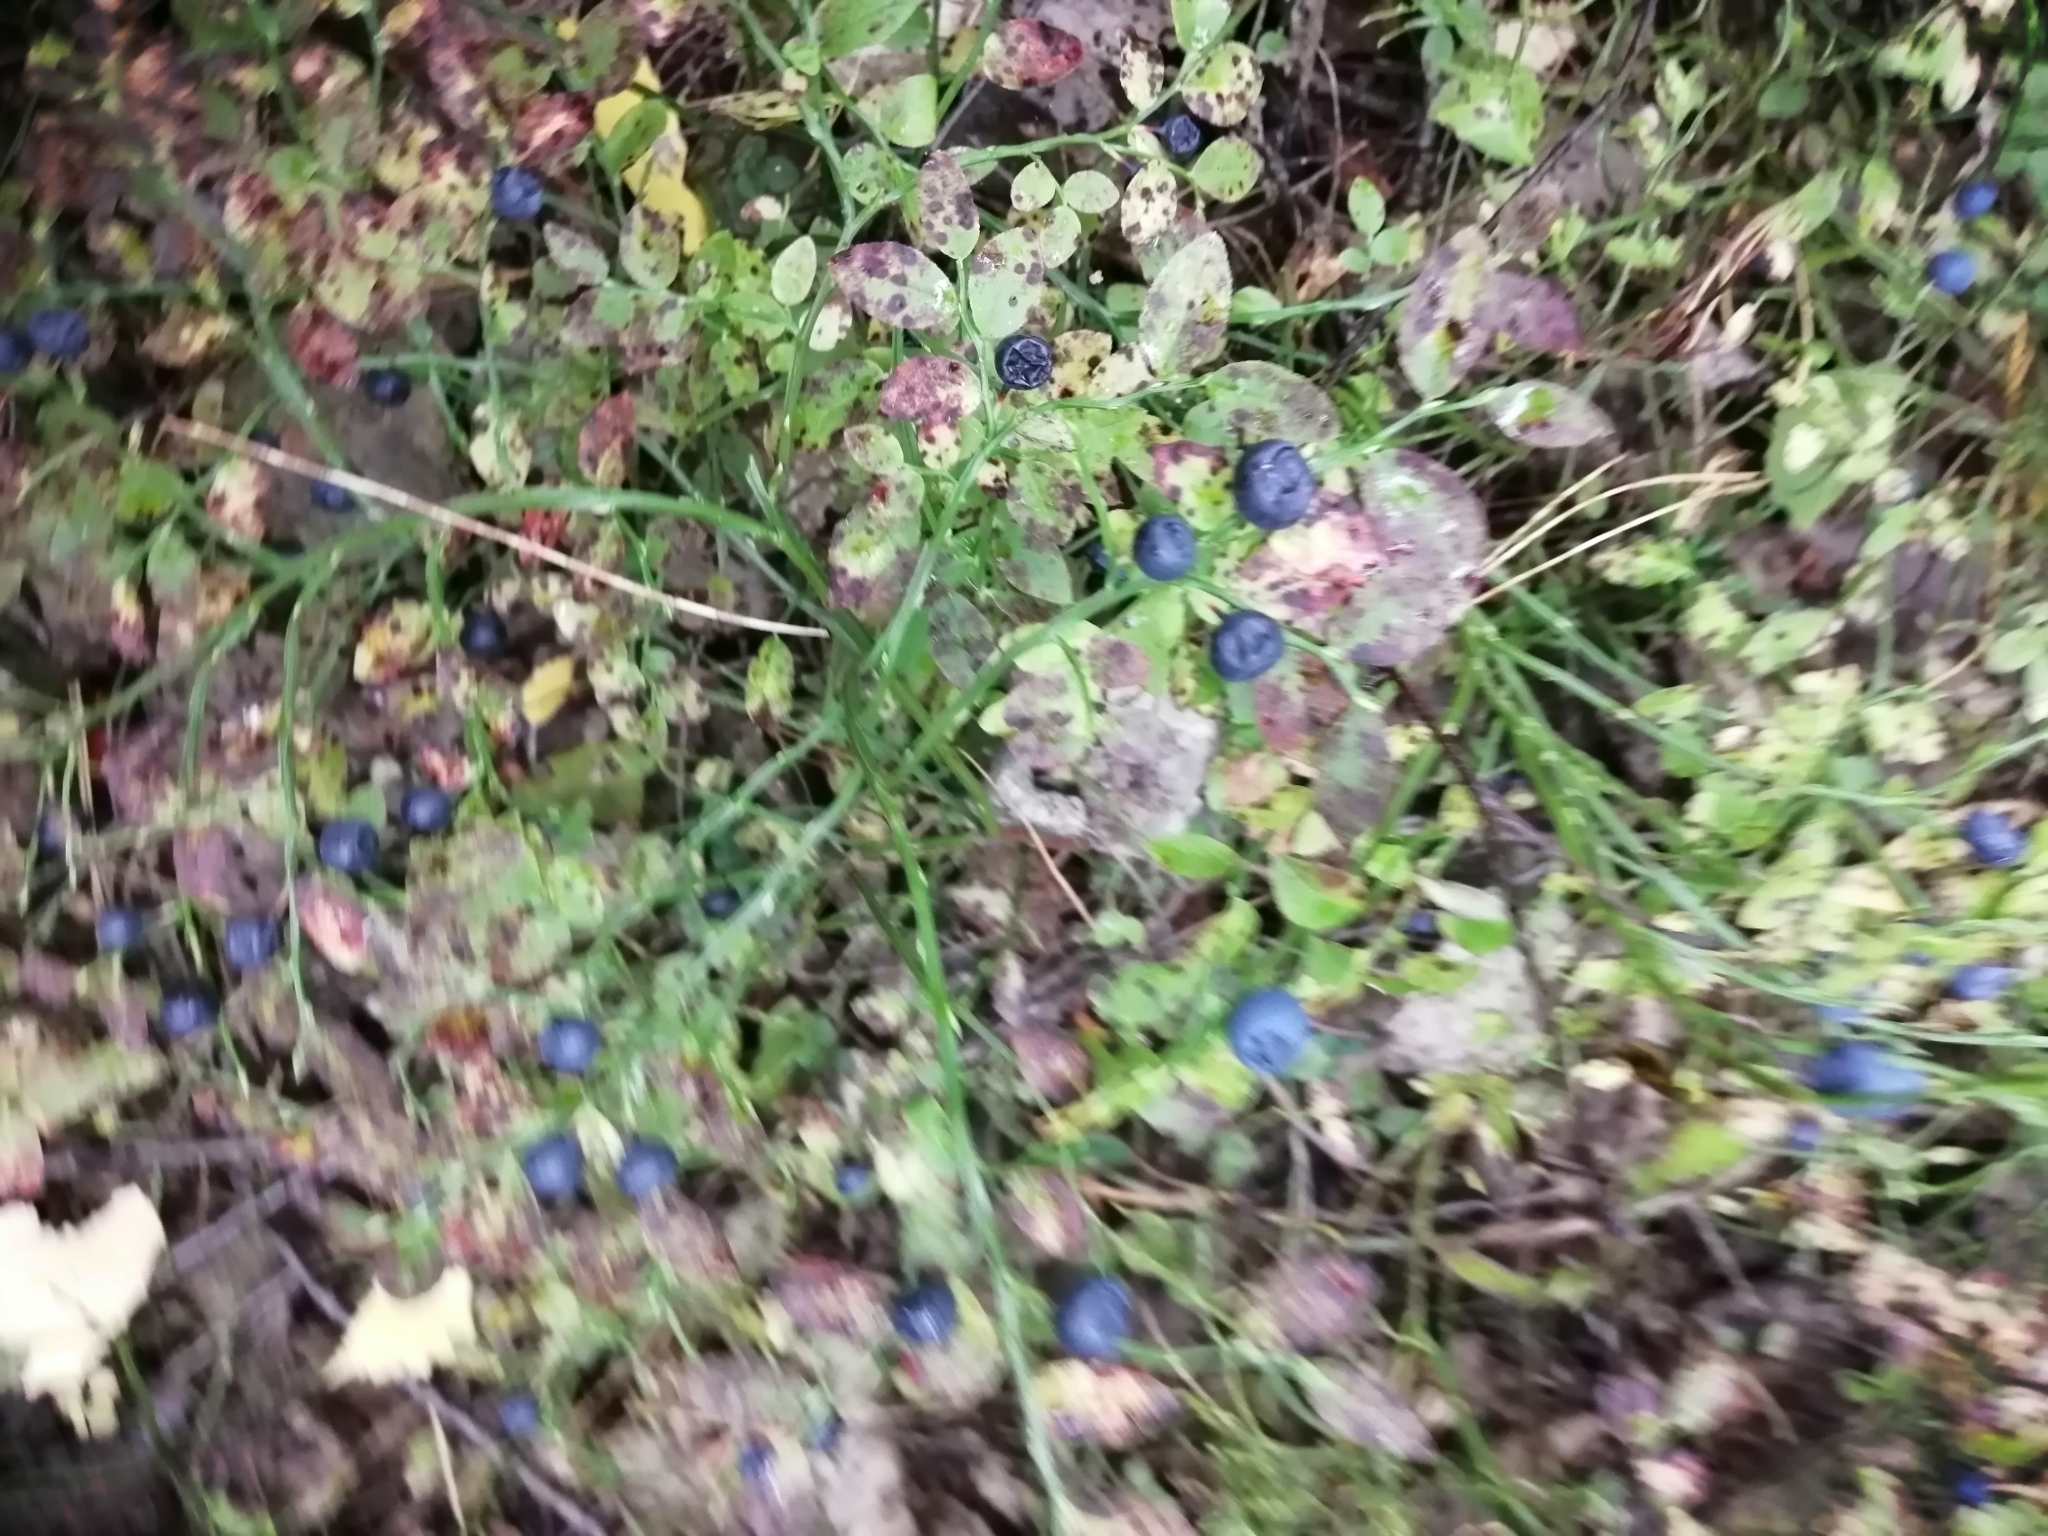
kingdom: Plantae
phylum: Tracheophyta
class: Magnoliopsida
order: Ericales
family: Ericaceae
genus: Vaccinium
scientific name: Vaccinium myrtillus
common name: Bilberry
